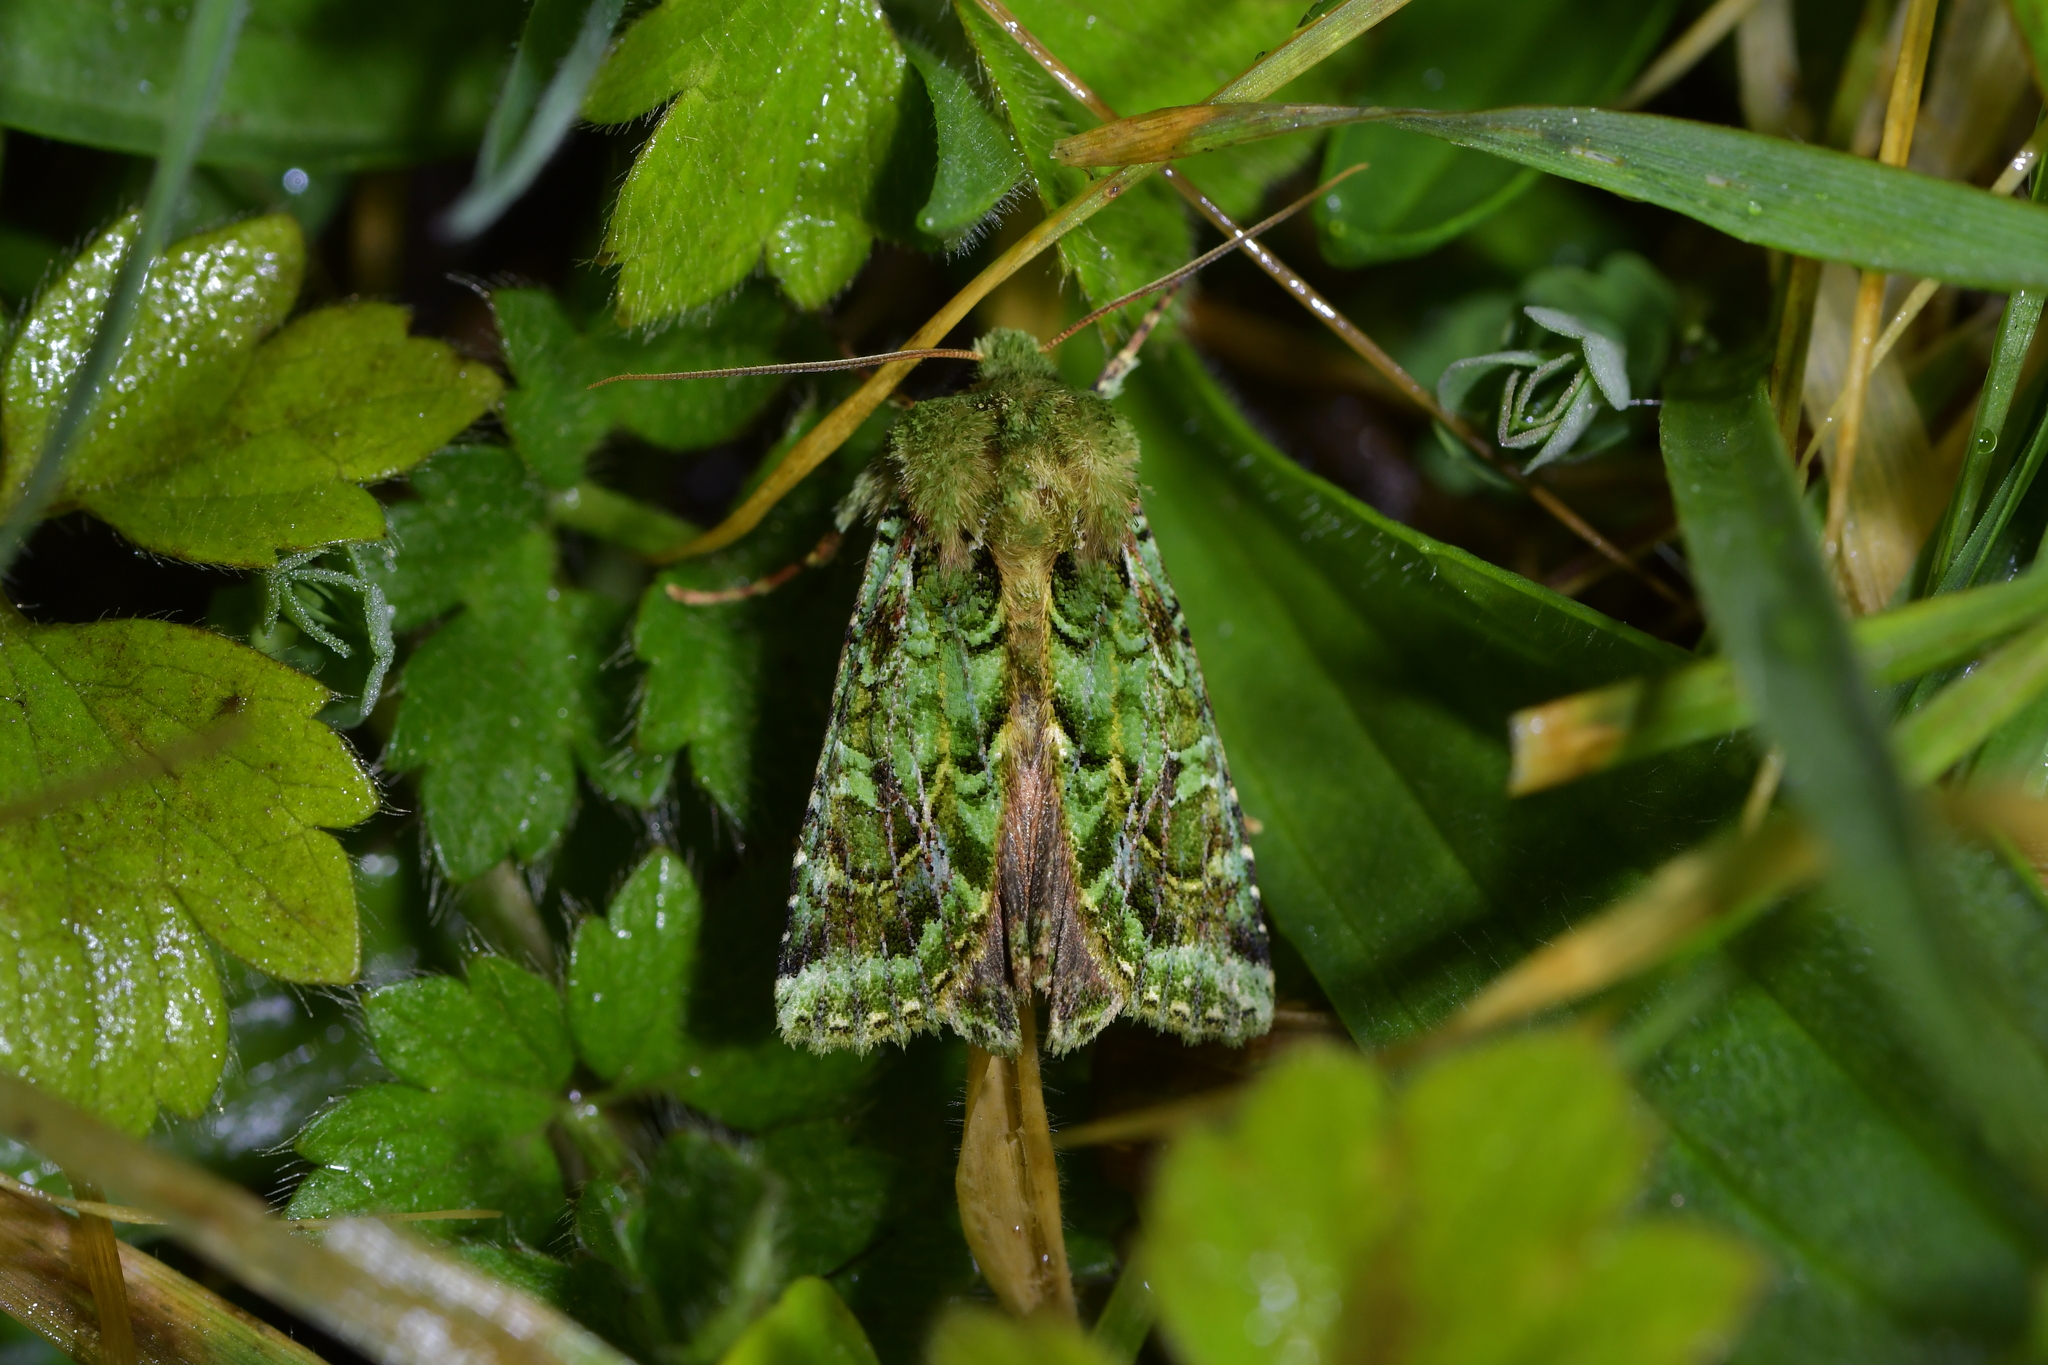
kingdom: Animalia
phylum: Arthropoda
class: Insecta
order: Lepidoptera
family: Noctuidae
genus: Feredayia
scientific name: Feredayia grammosa
